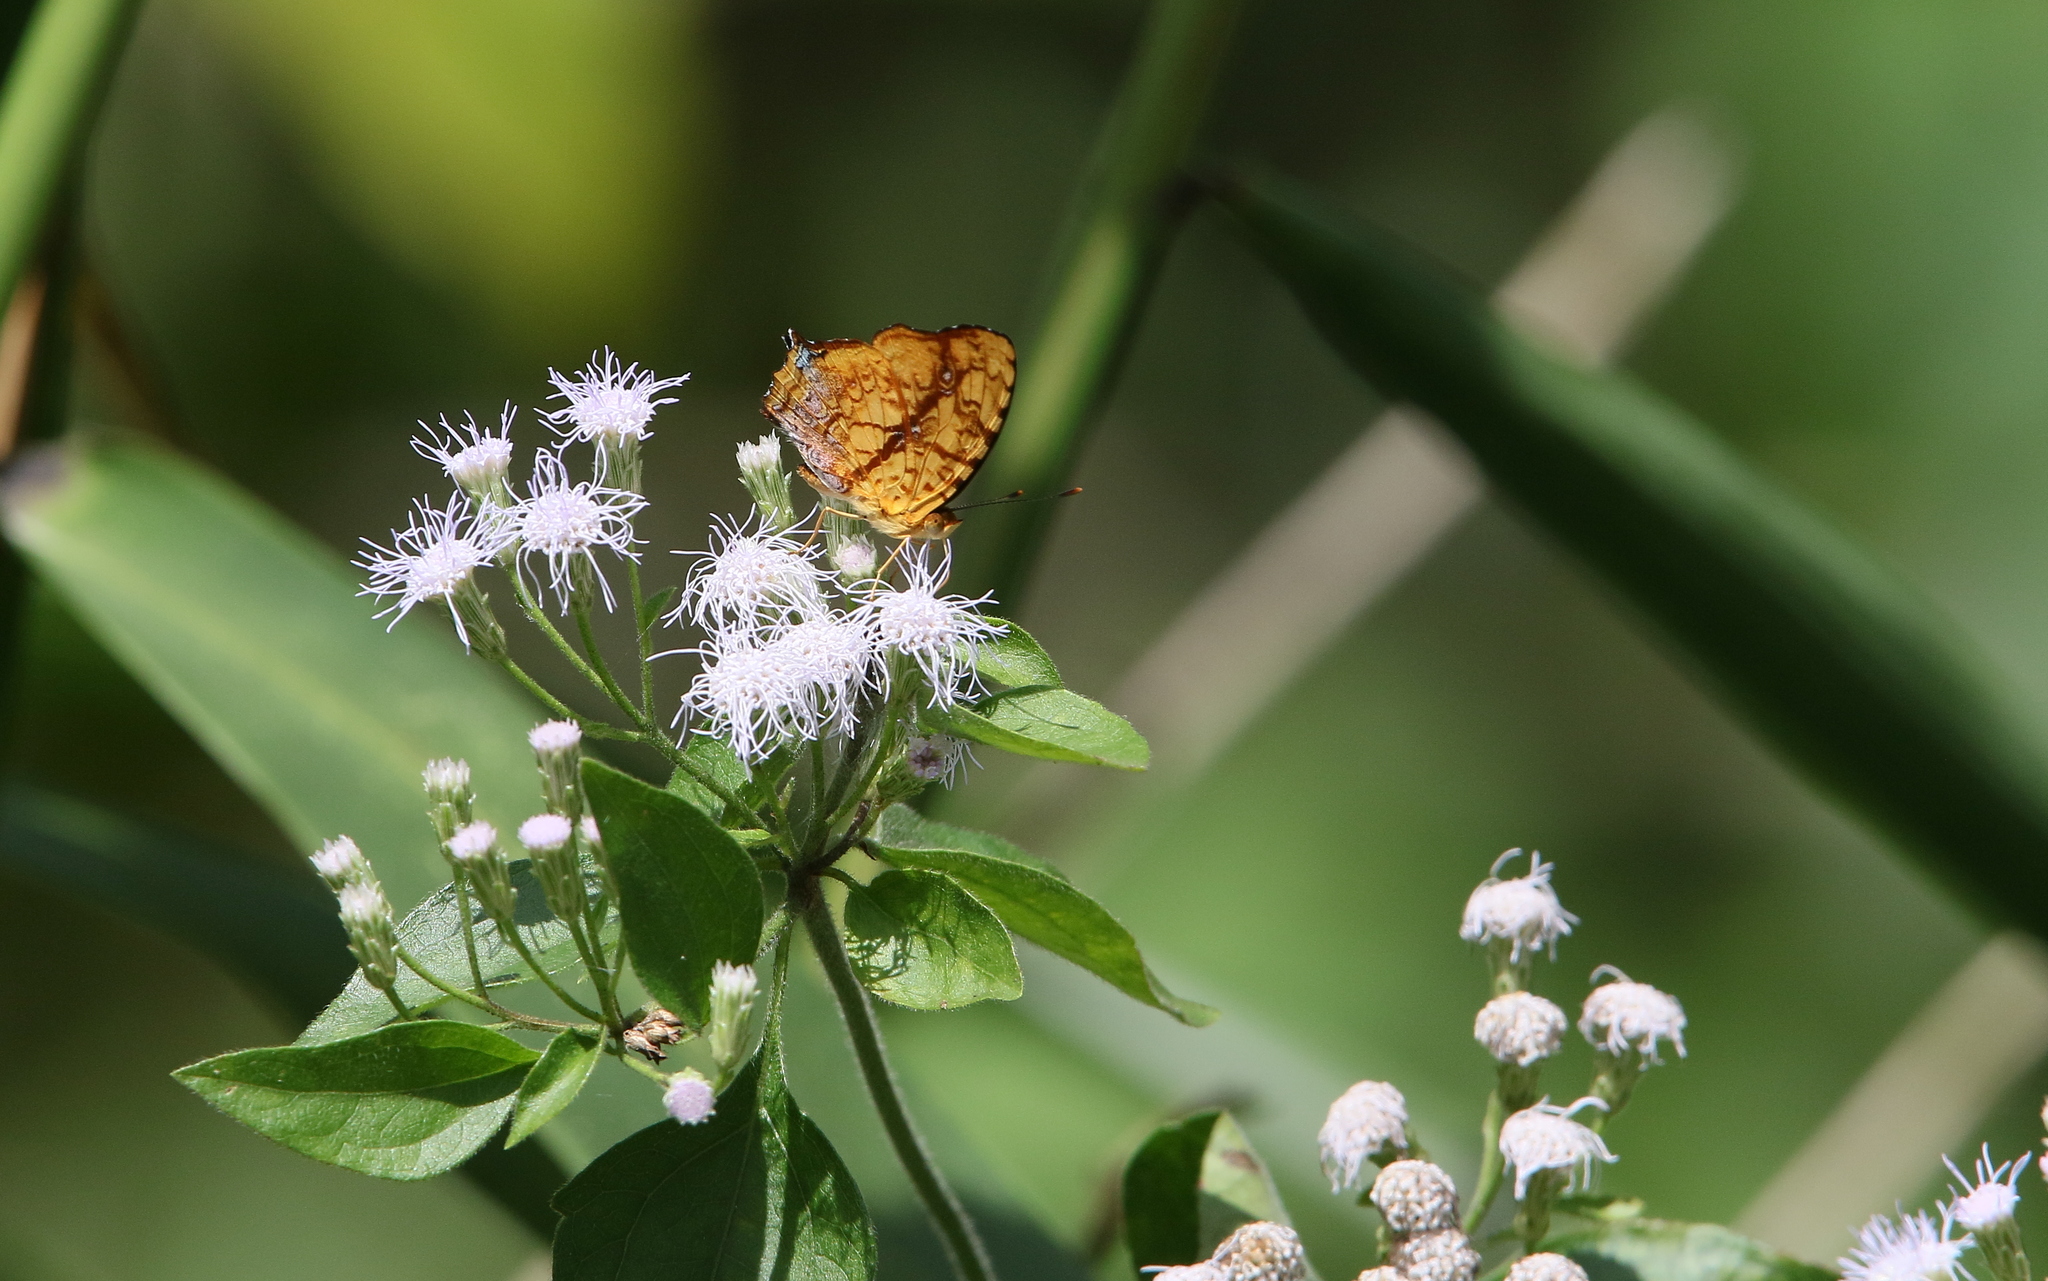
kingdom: Animalia
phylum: Arthropoda
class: Insecta
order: Lepidoptera
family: Nymphalidae
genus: Symbrenthia
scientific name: Symbrenthia hypselis
